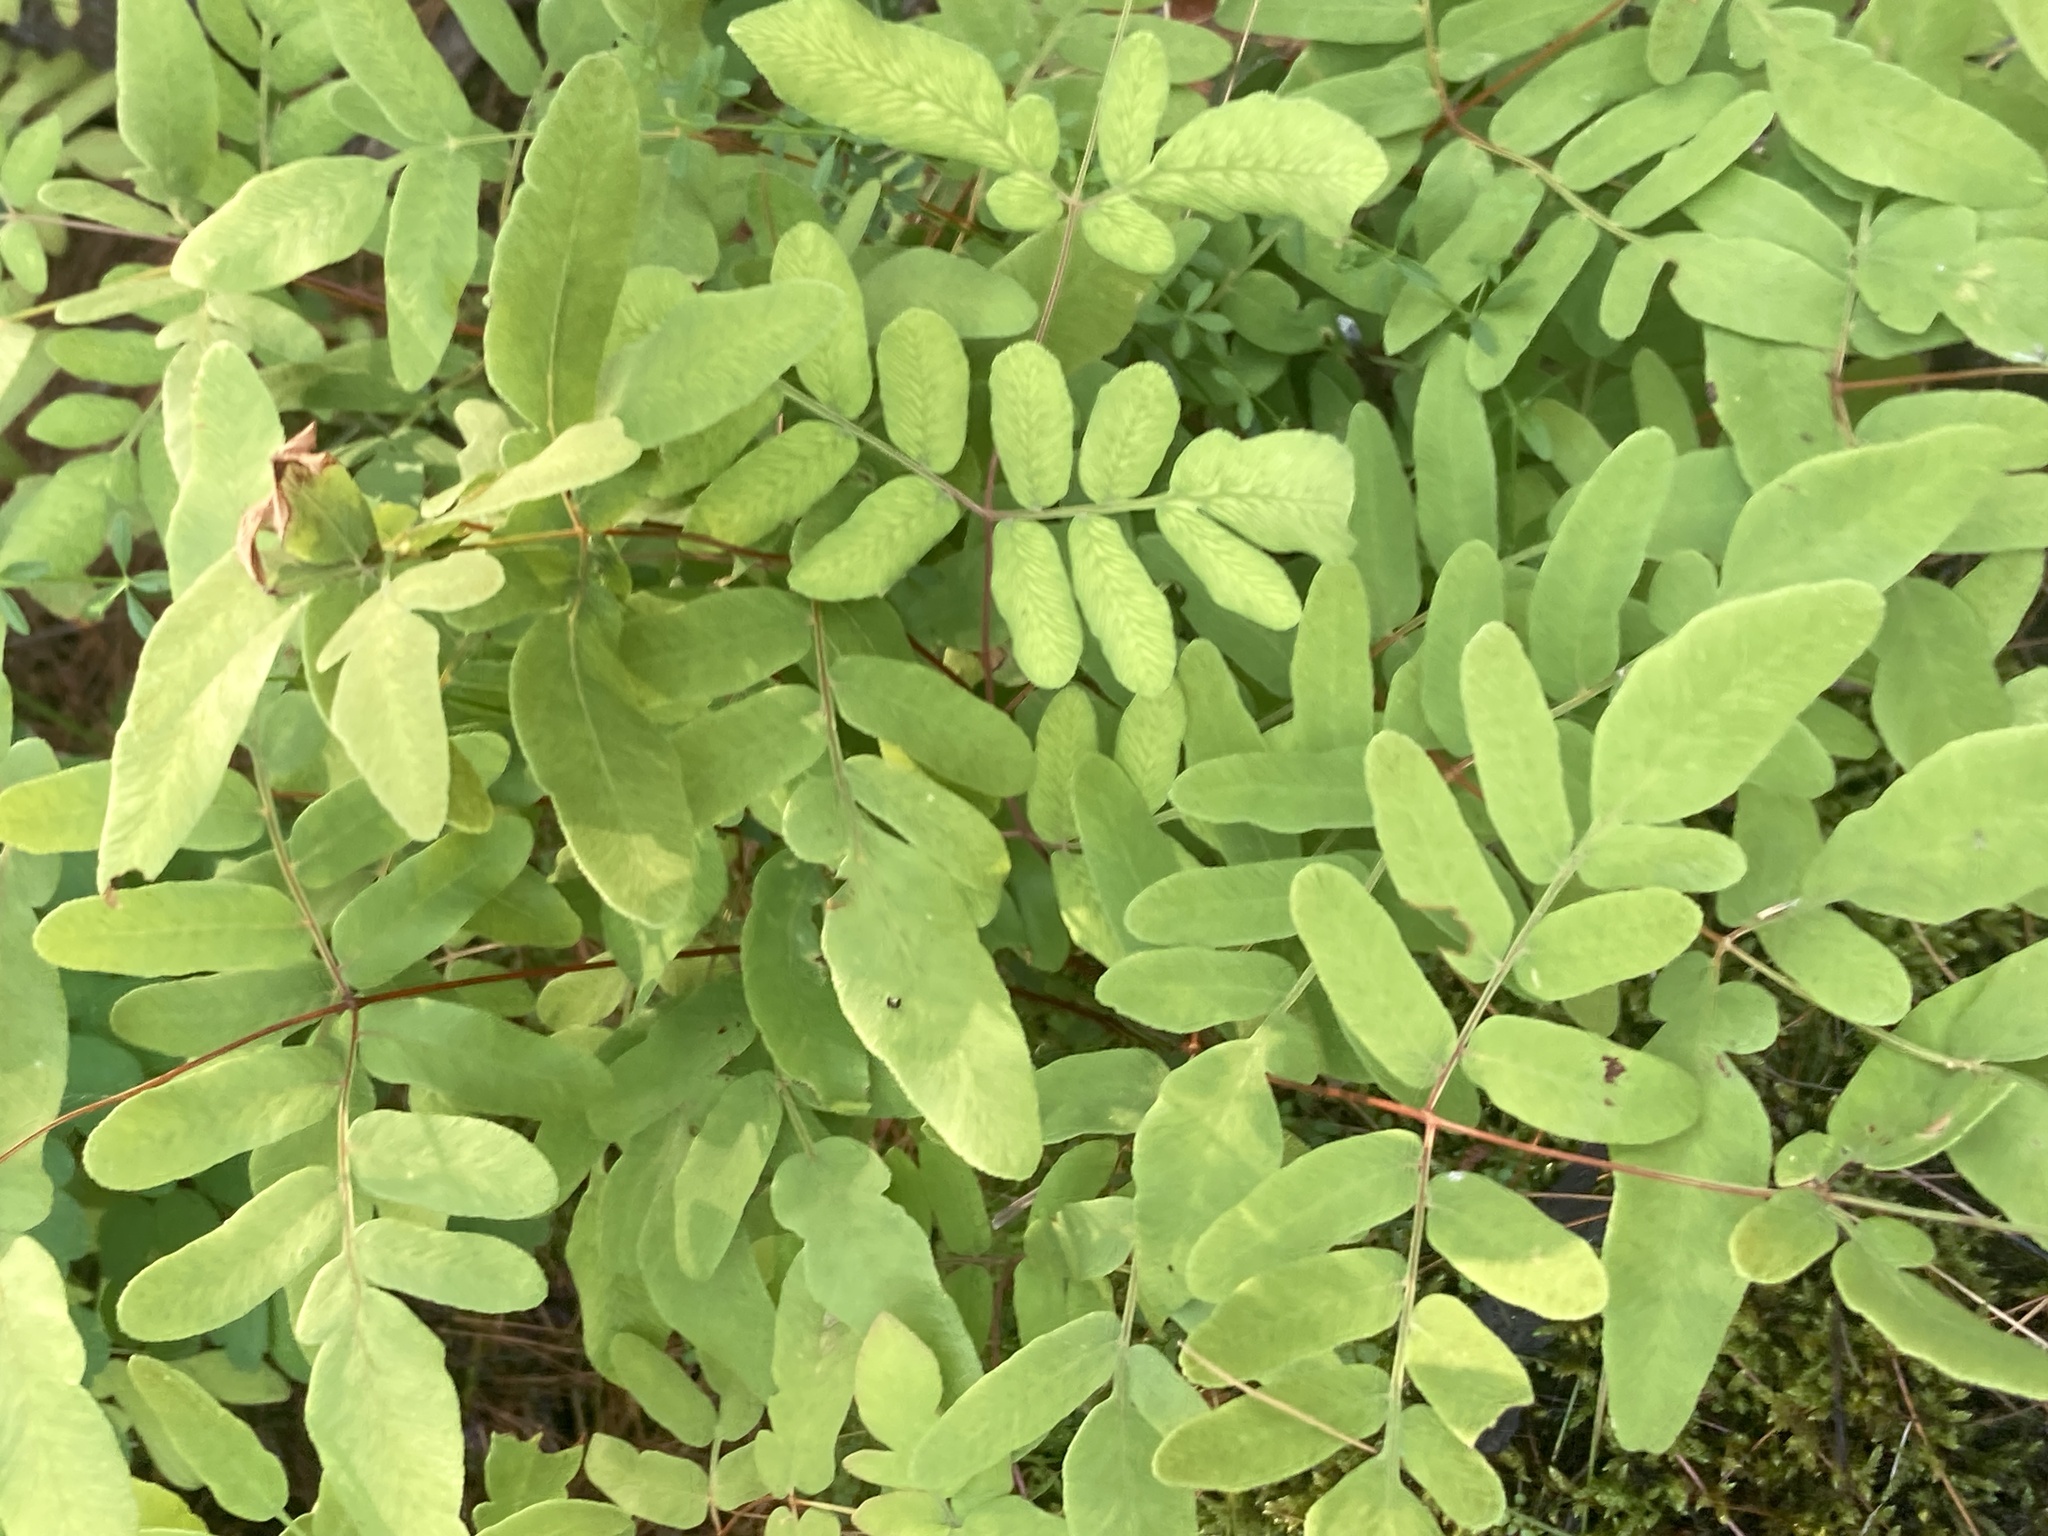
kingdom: Plantae
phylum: Tracheophyta
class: Polypodiopsida
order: Osmundales
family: Osmundaceae
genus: Osmunda
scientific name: Osmunda spectabilis
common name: American royal fern
